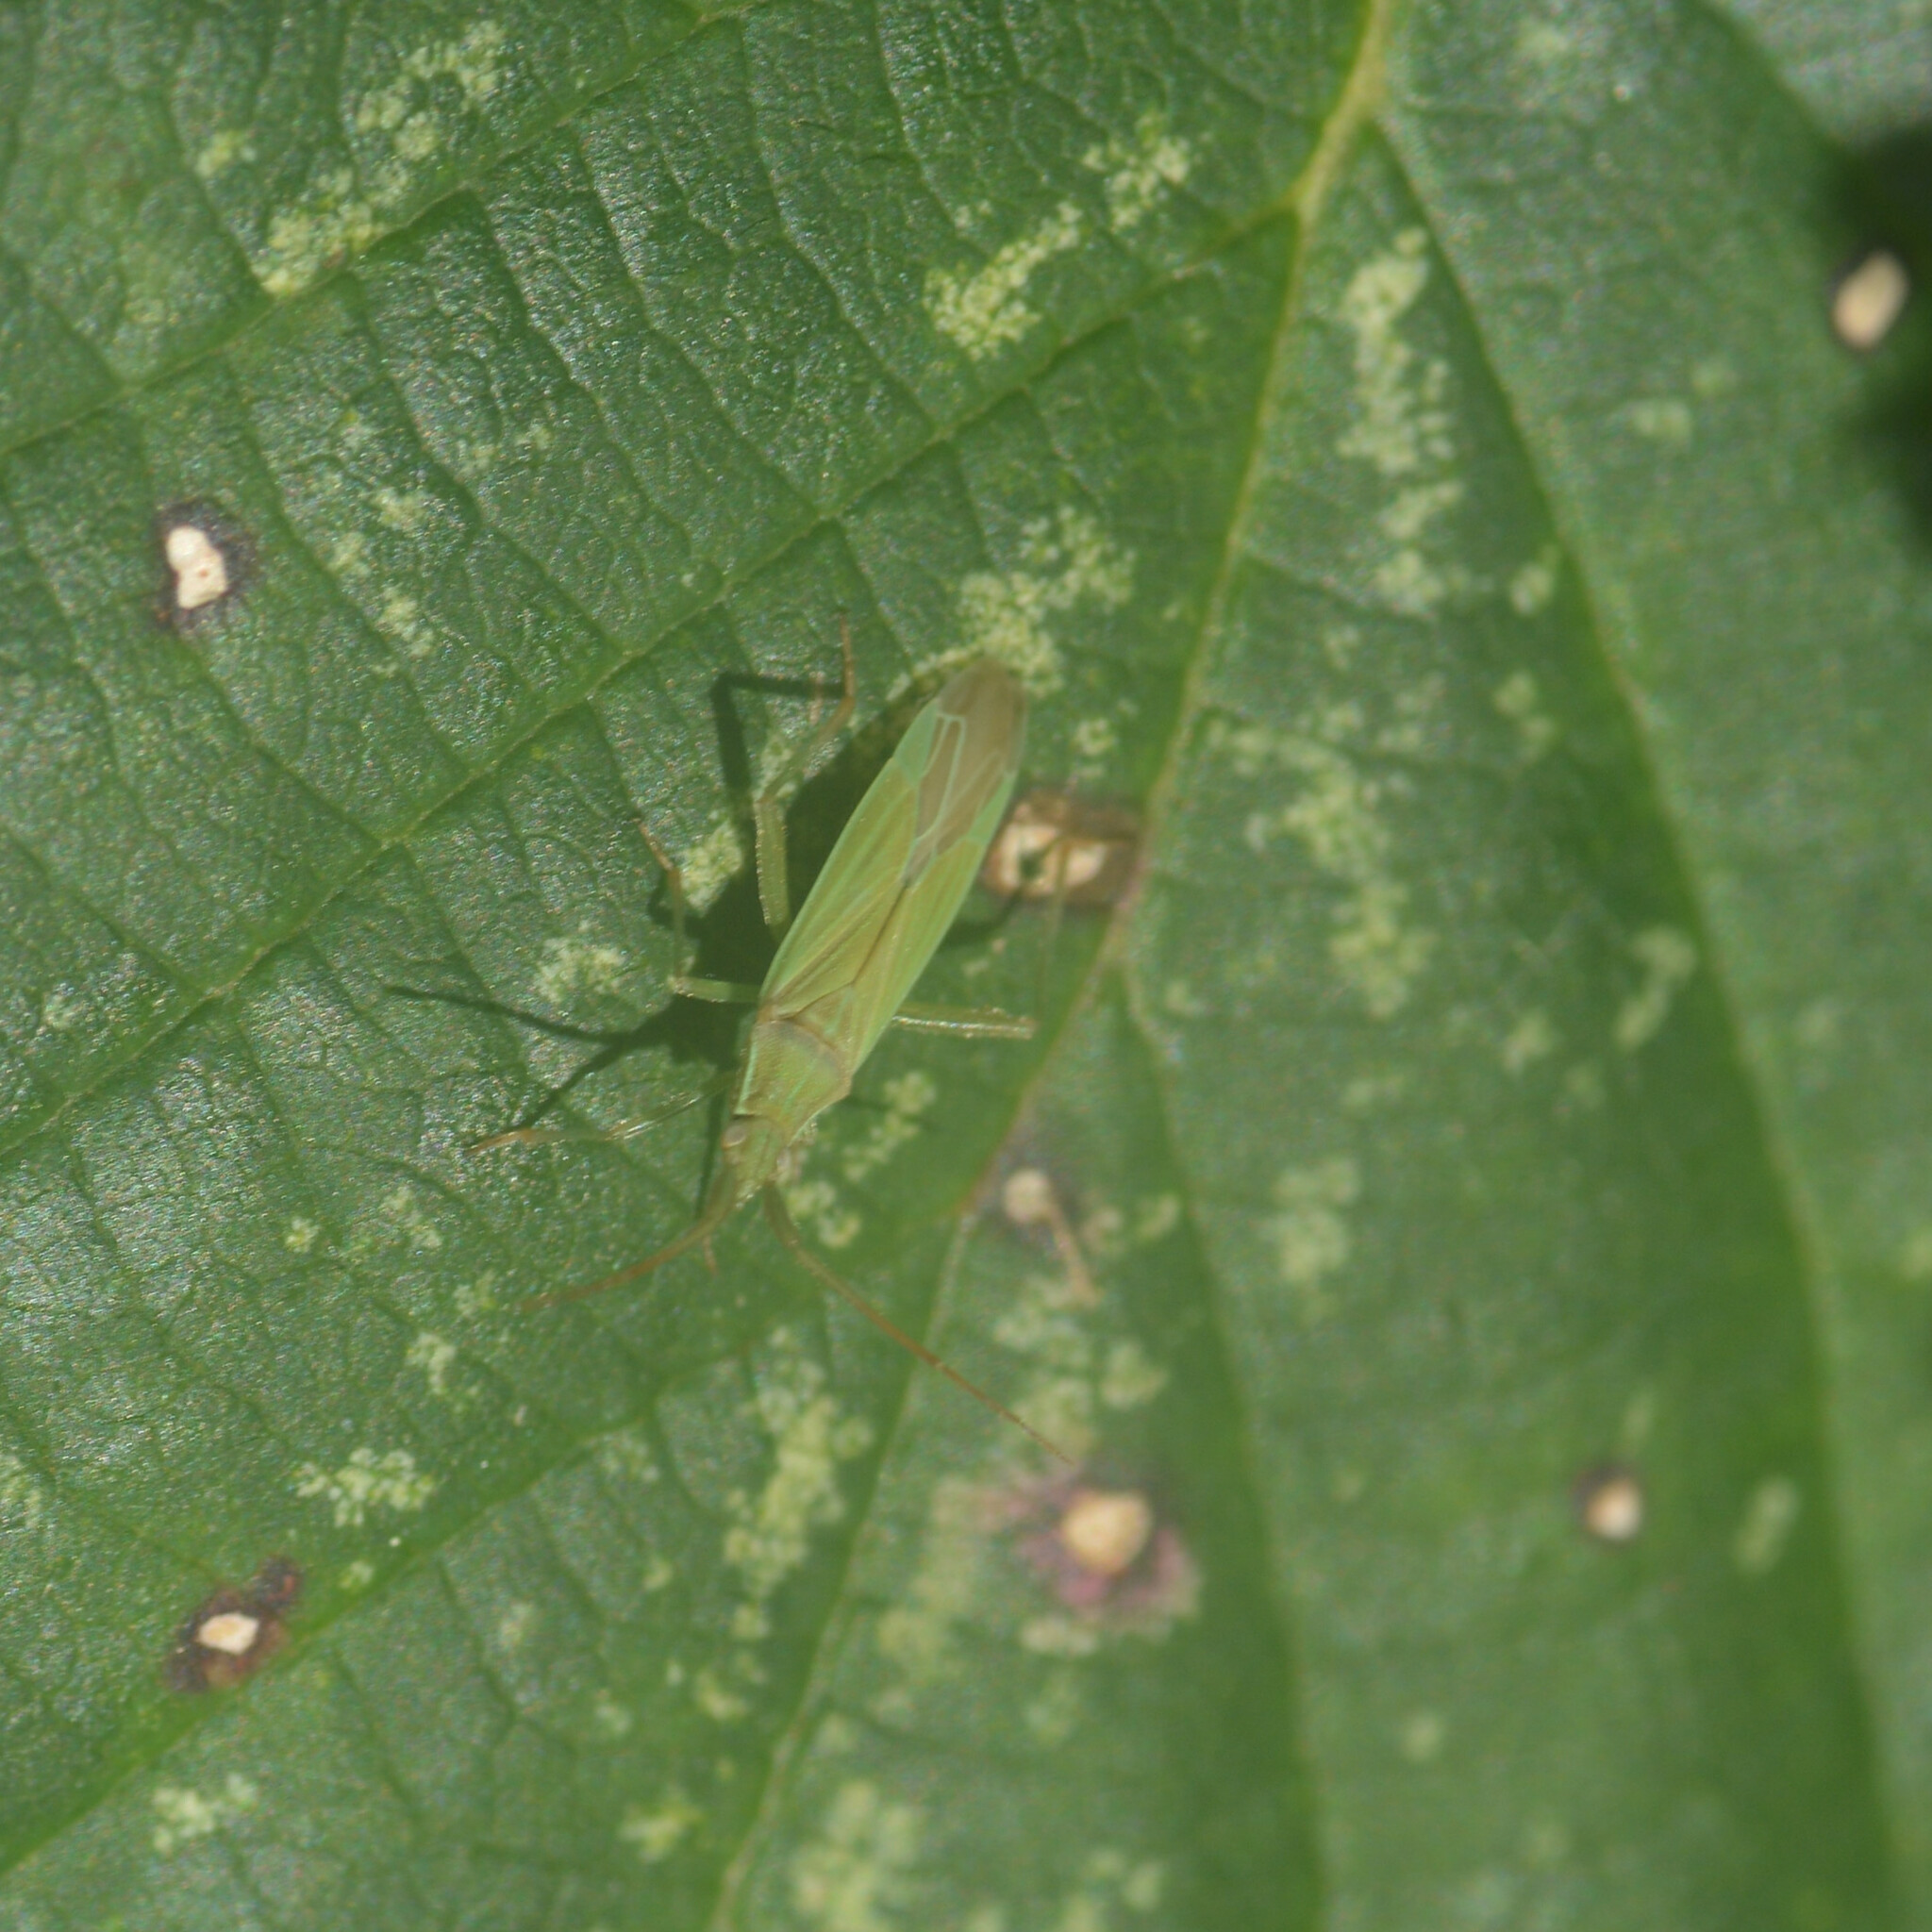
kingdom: Animalia
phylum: Arthropoda
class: Insecta
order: Hemiptera
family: Miridae
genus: Stenodema
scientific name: Stenodema calcarata
